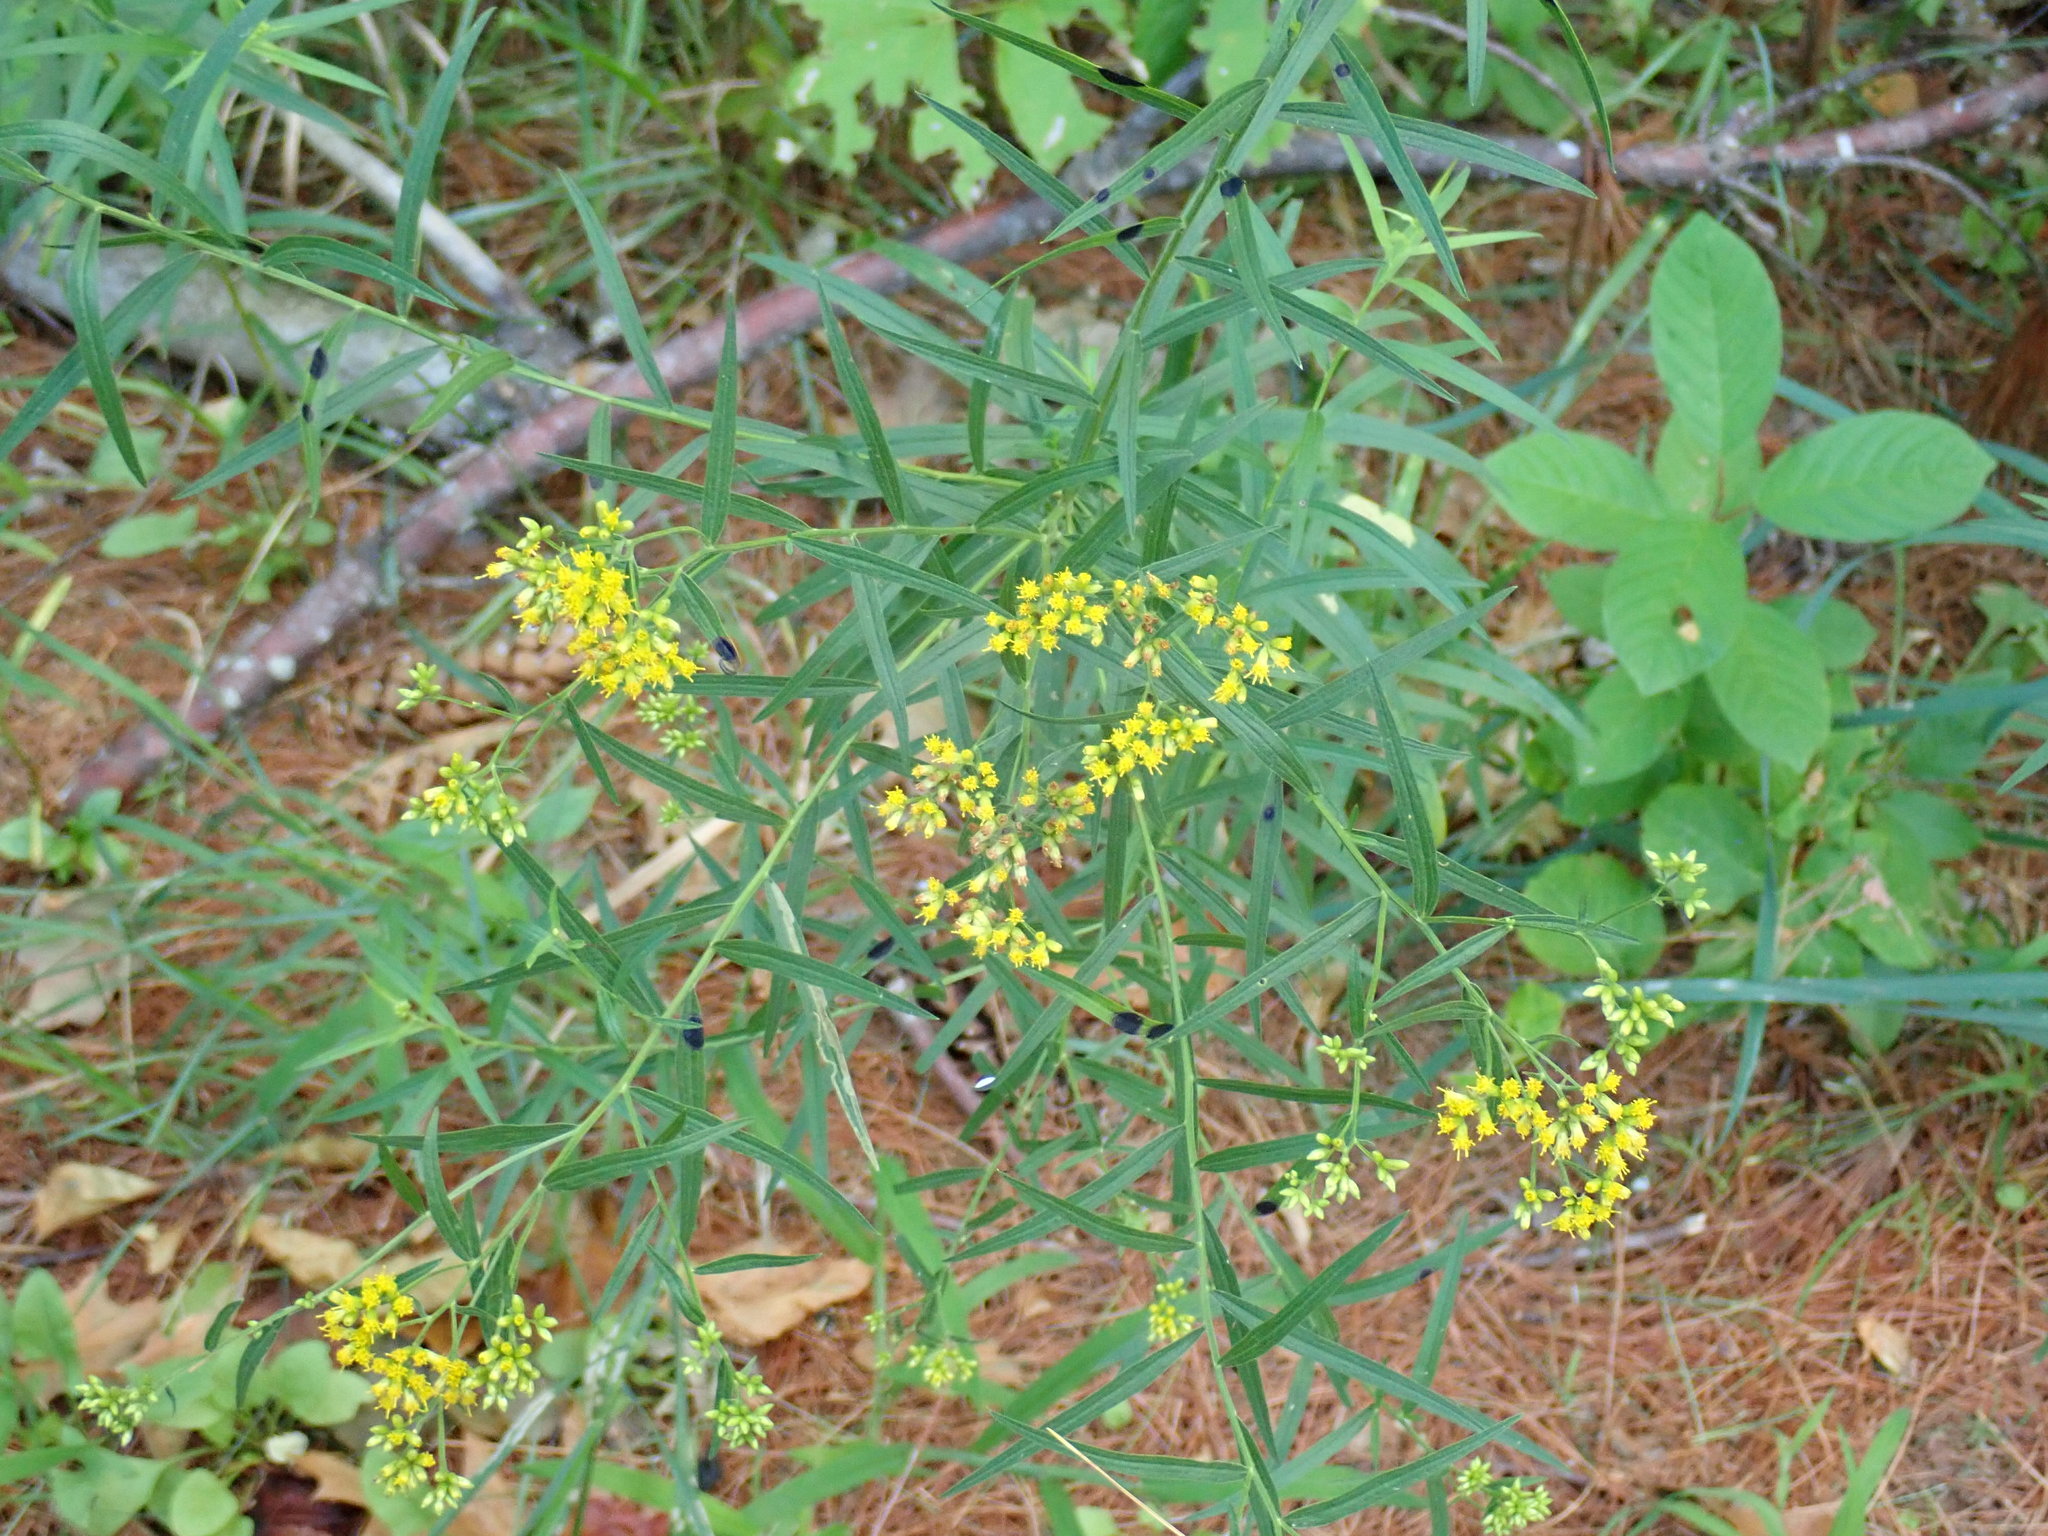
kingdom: Plantae
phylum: Tracheophyta
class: Magnoliopsida
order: Asterales
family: Asteraceae
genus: Euthamia
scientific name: Euthamia graminifolia
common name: Common goldentop
